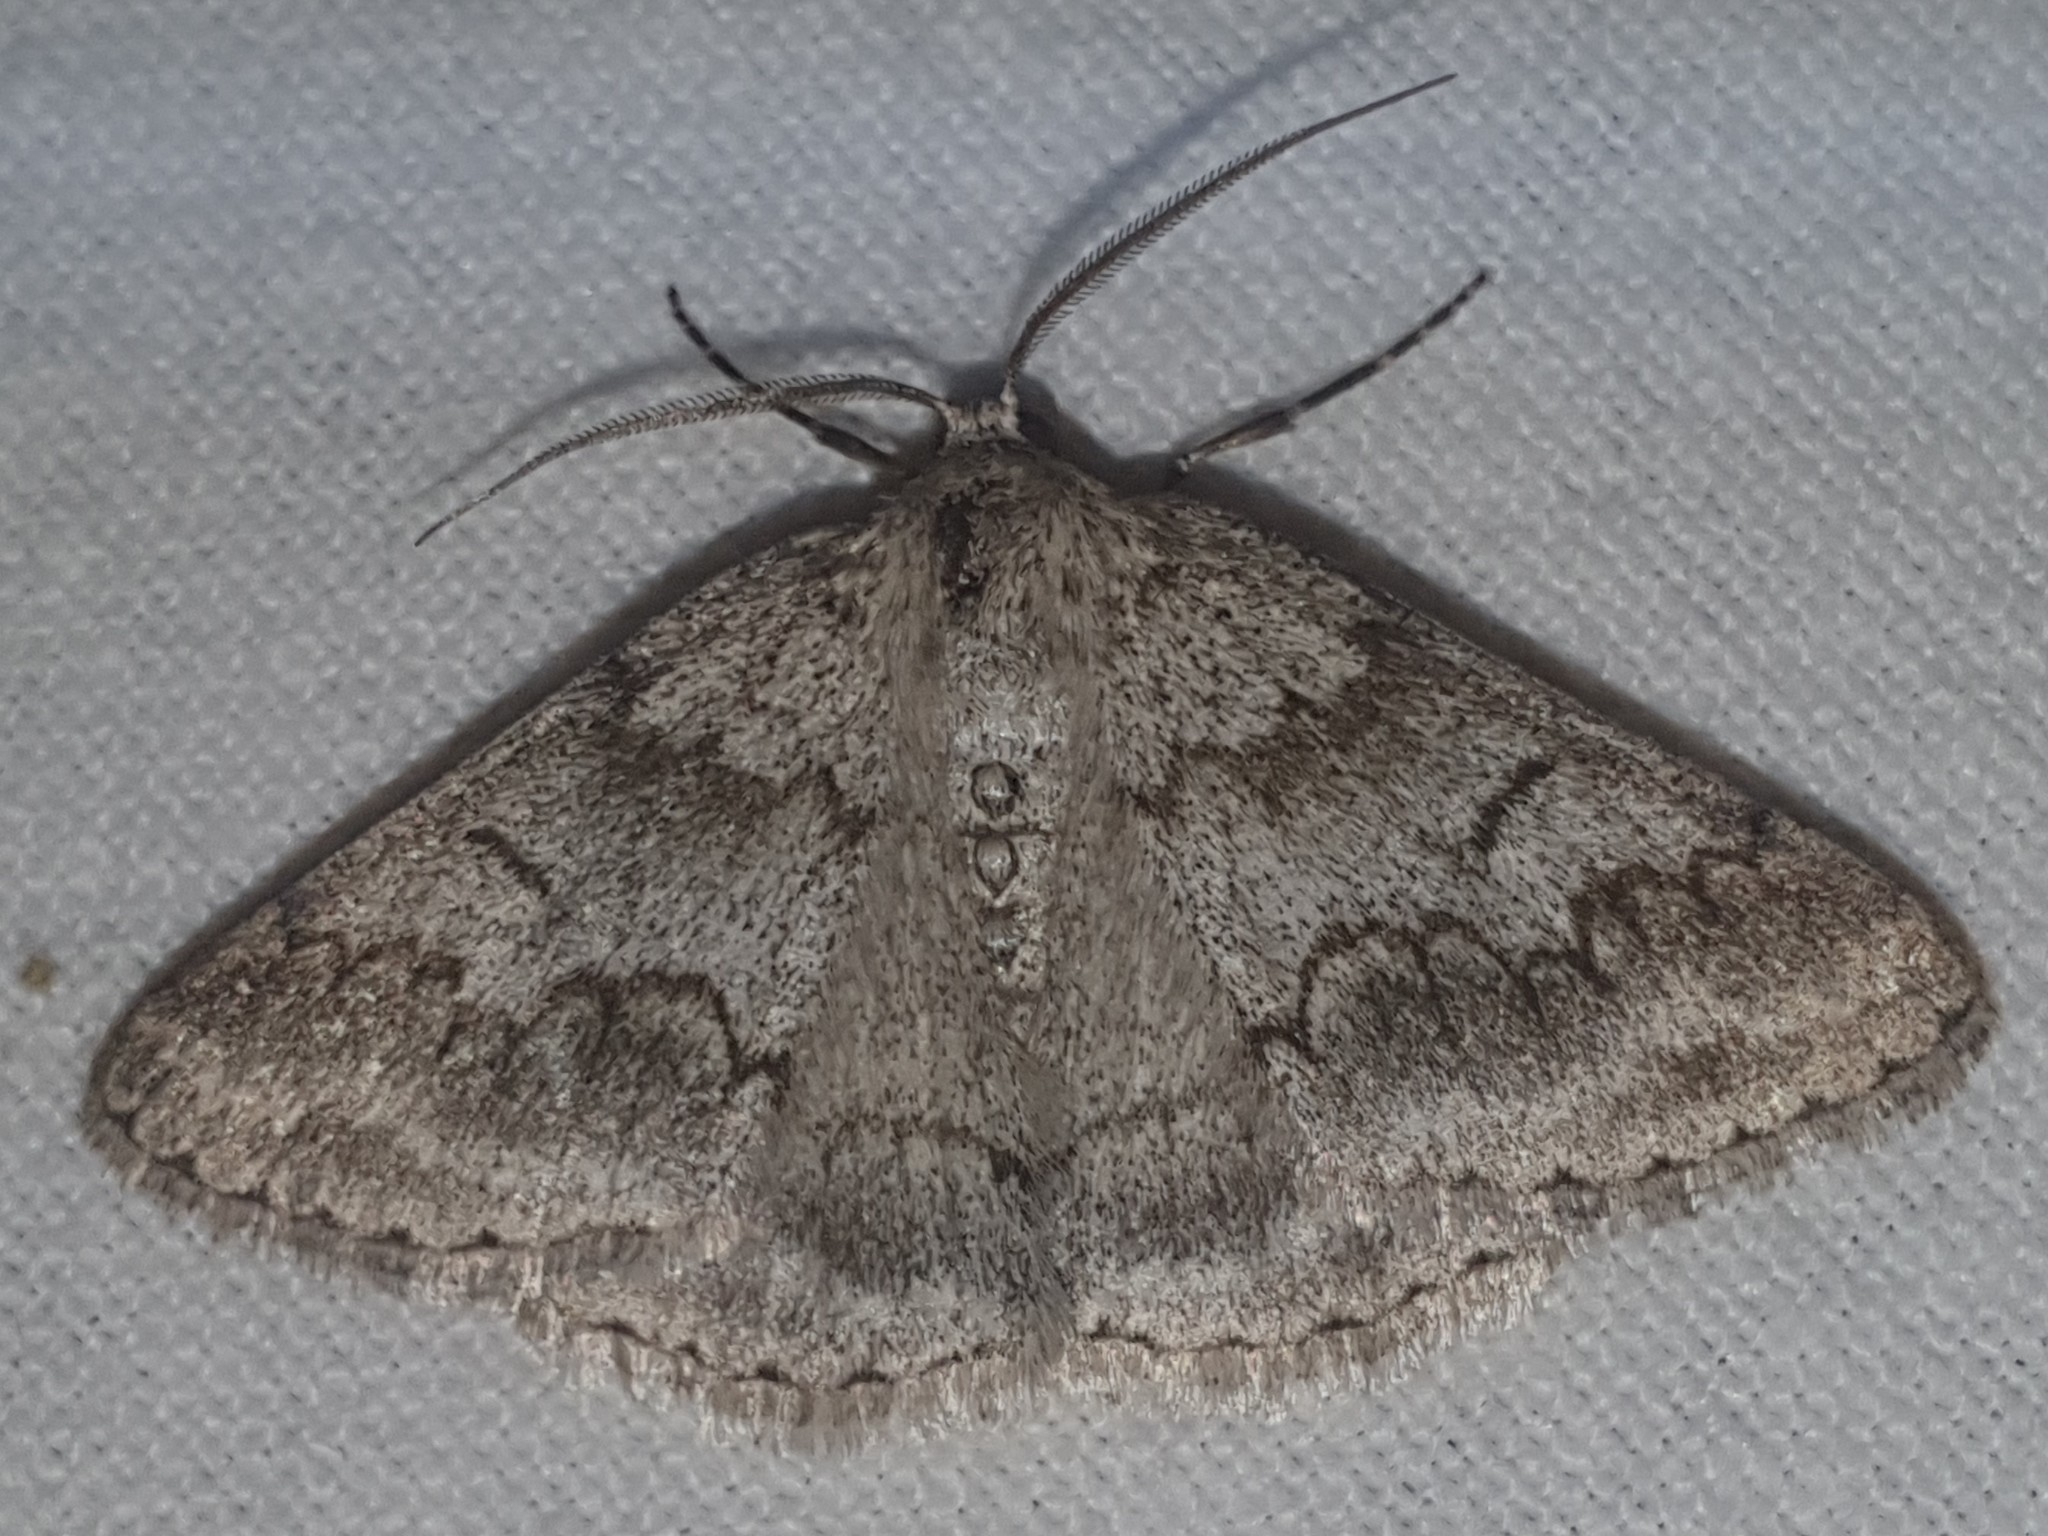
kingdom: Animalia
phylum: Arthropoda
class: Insecta
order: Lepidoptera
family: Geometridae
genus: Pseudoterpna
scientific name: Pseudoterpna coronillaria
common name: Jersey emerald
